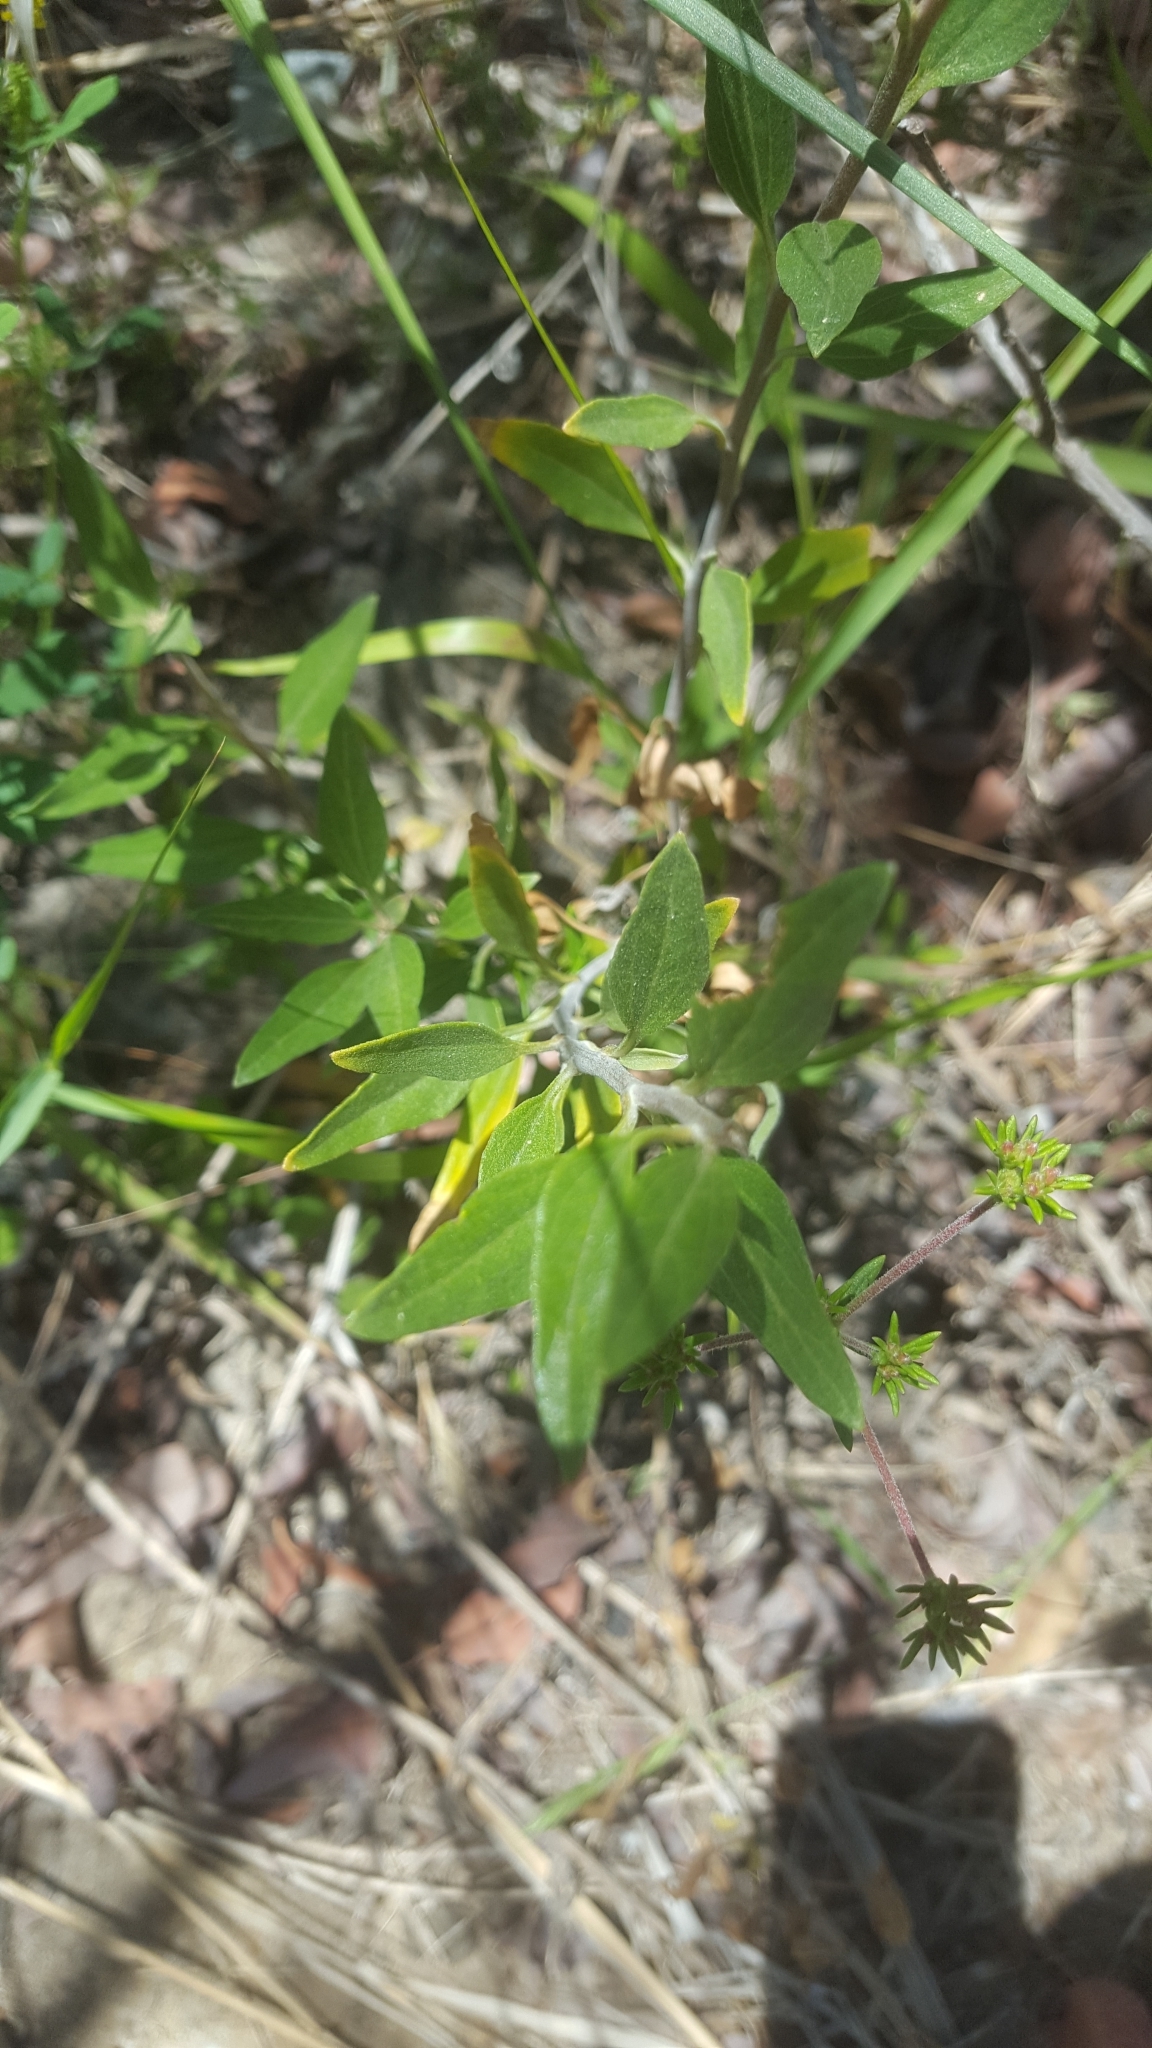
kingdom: Plantae
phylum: Tracheophyta
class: Magnoliopsida
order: Asterales
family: Asteraceae
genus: Encelia
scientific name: Encelia californica
